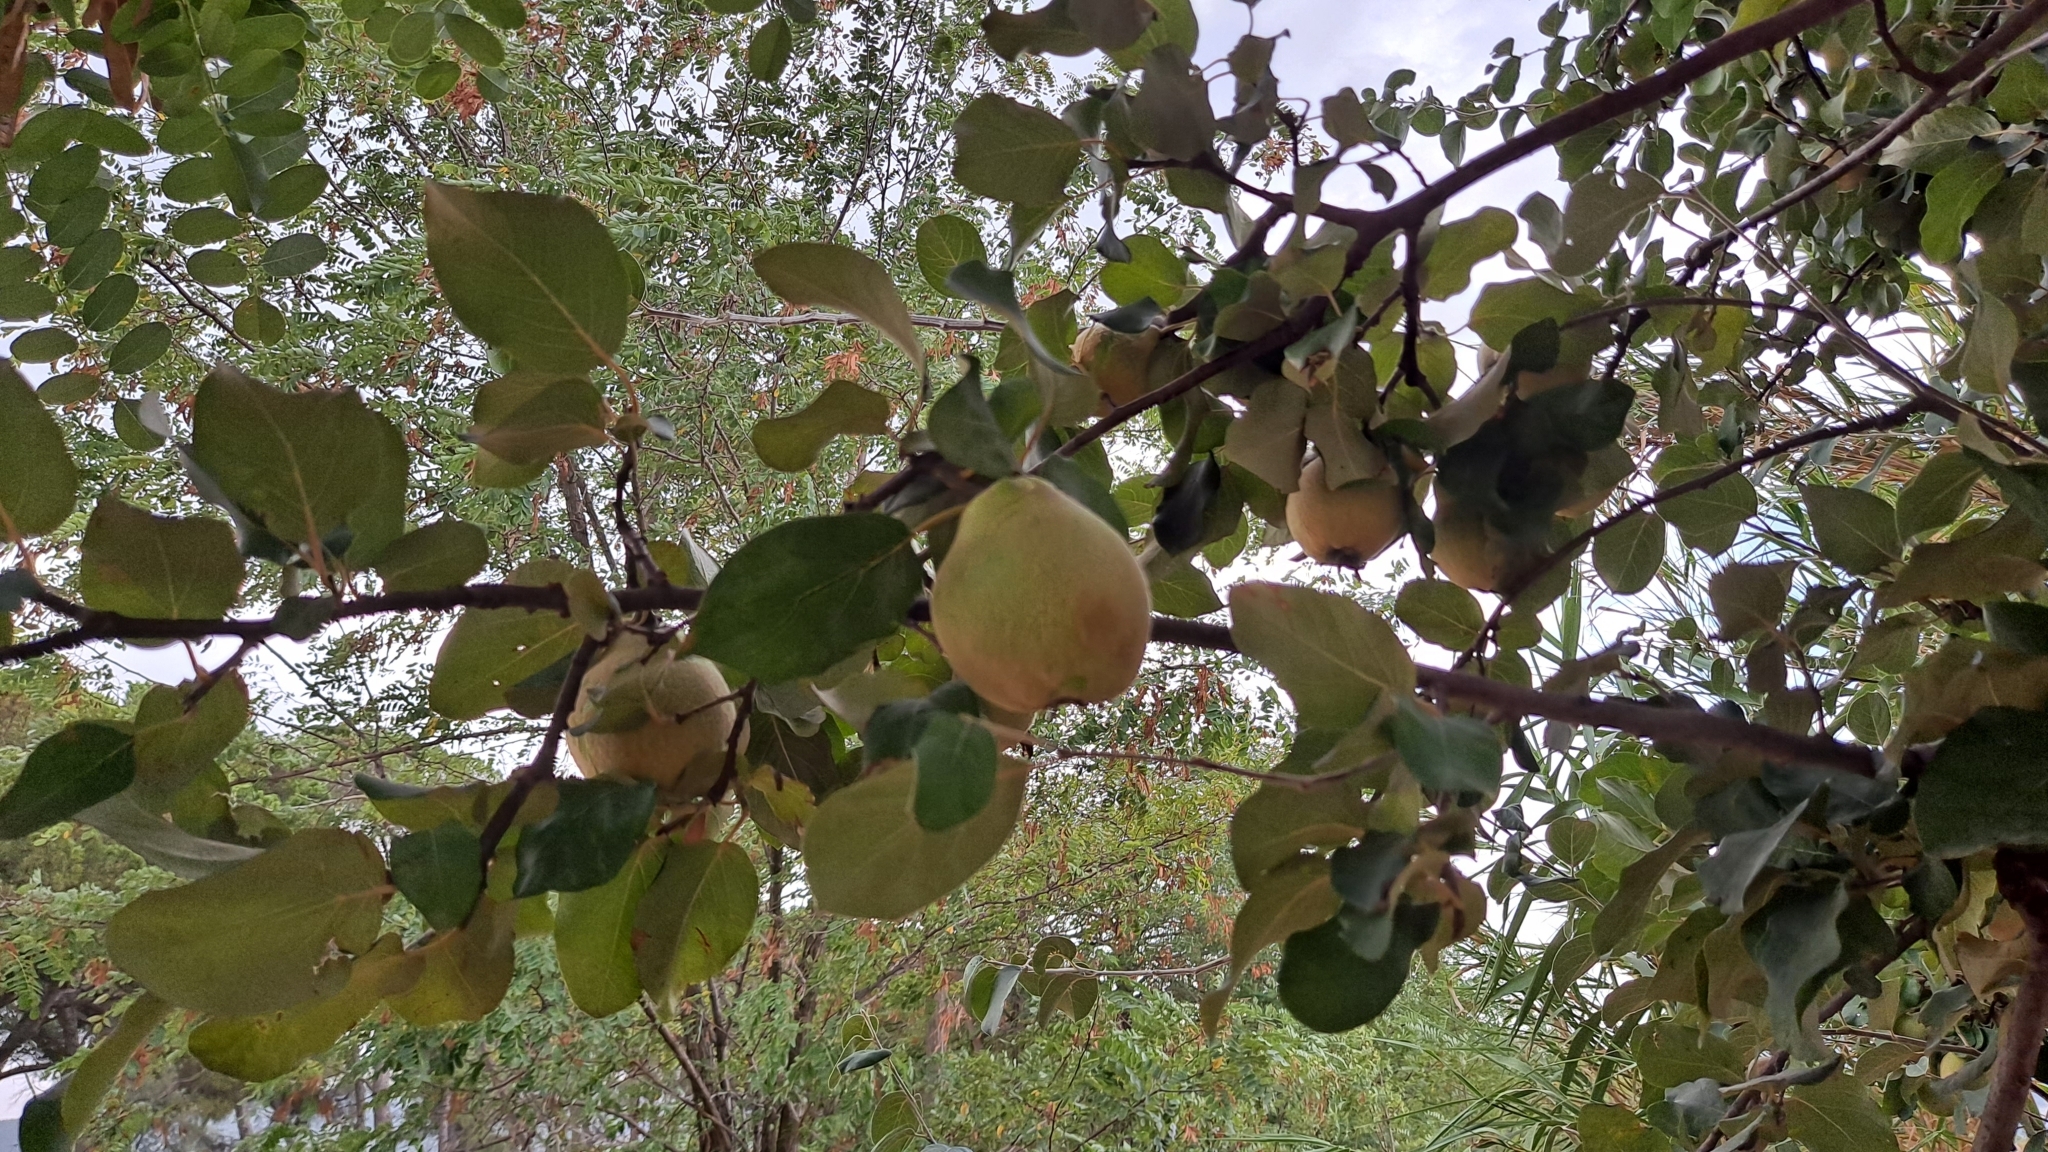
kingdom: Plantae
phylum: Tracheophyta
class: Magnoliopsida
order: Rosales
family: Rosaceae
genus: Cydonia
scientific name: Cydonia oblonga
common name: Quince
